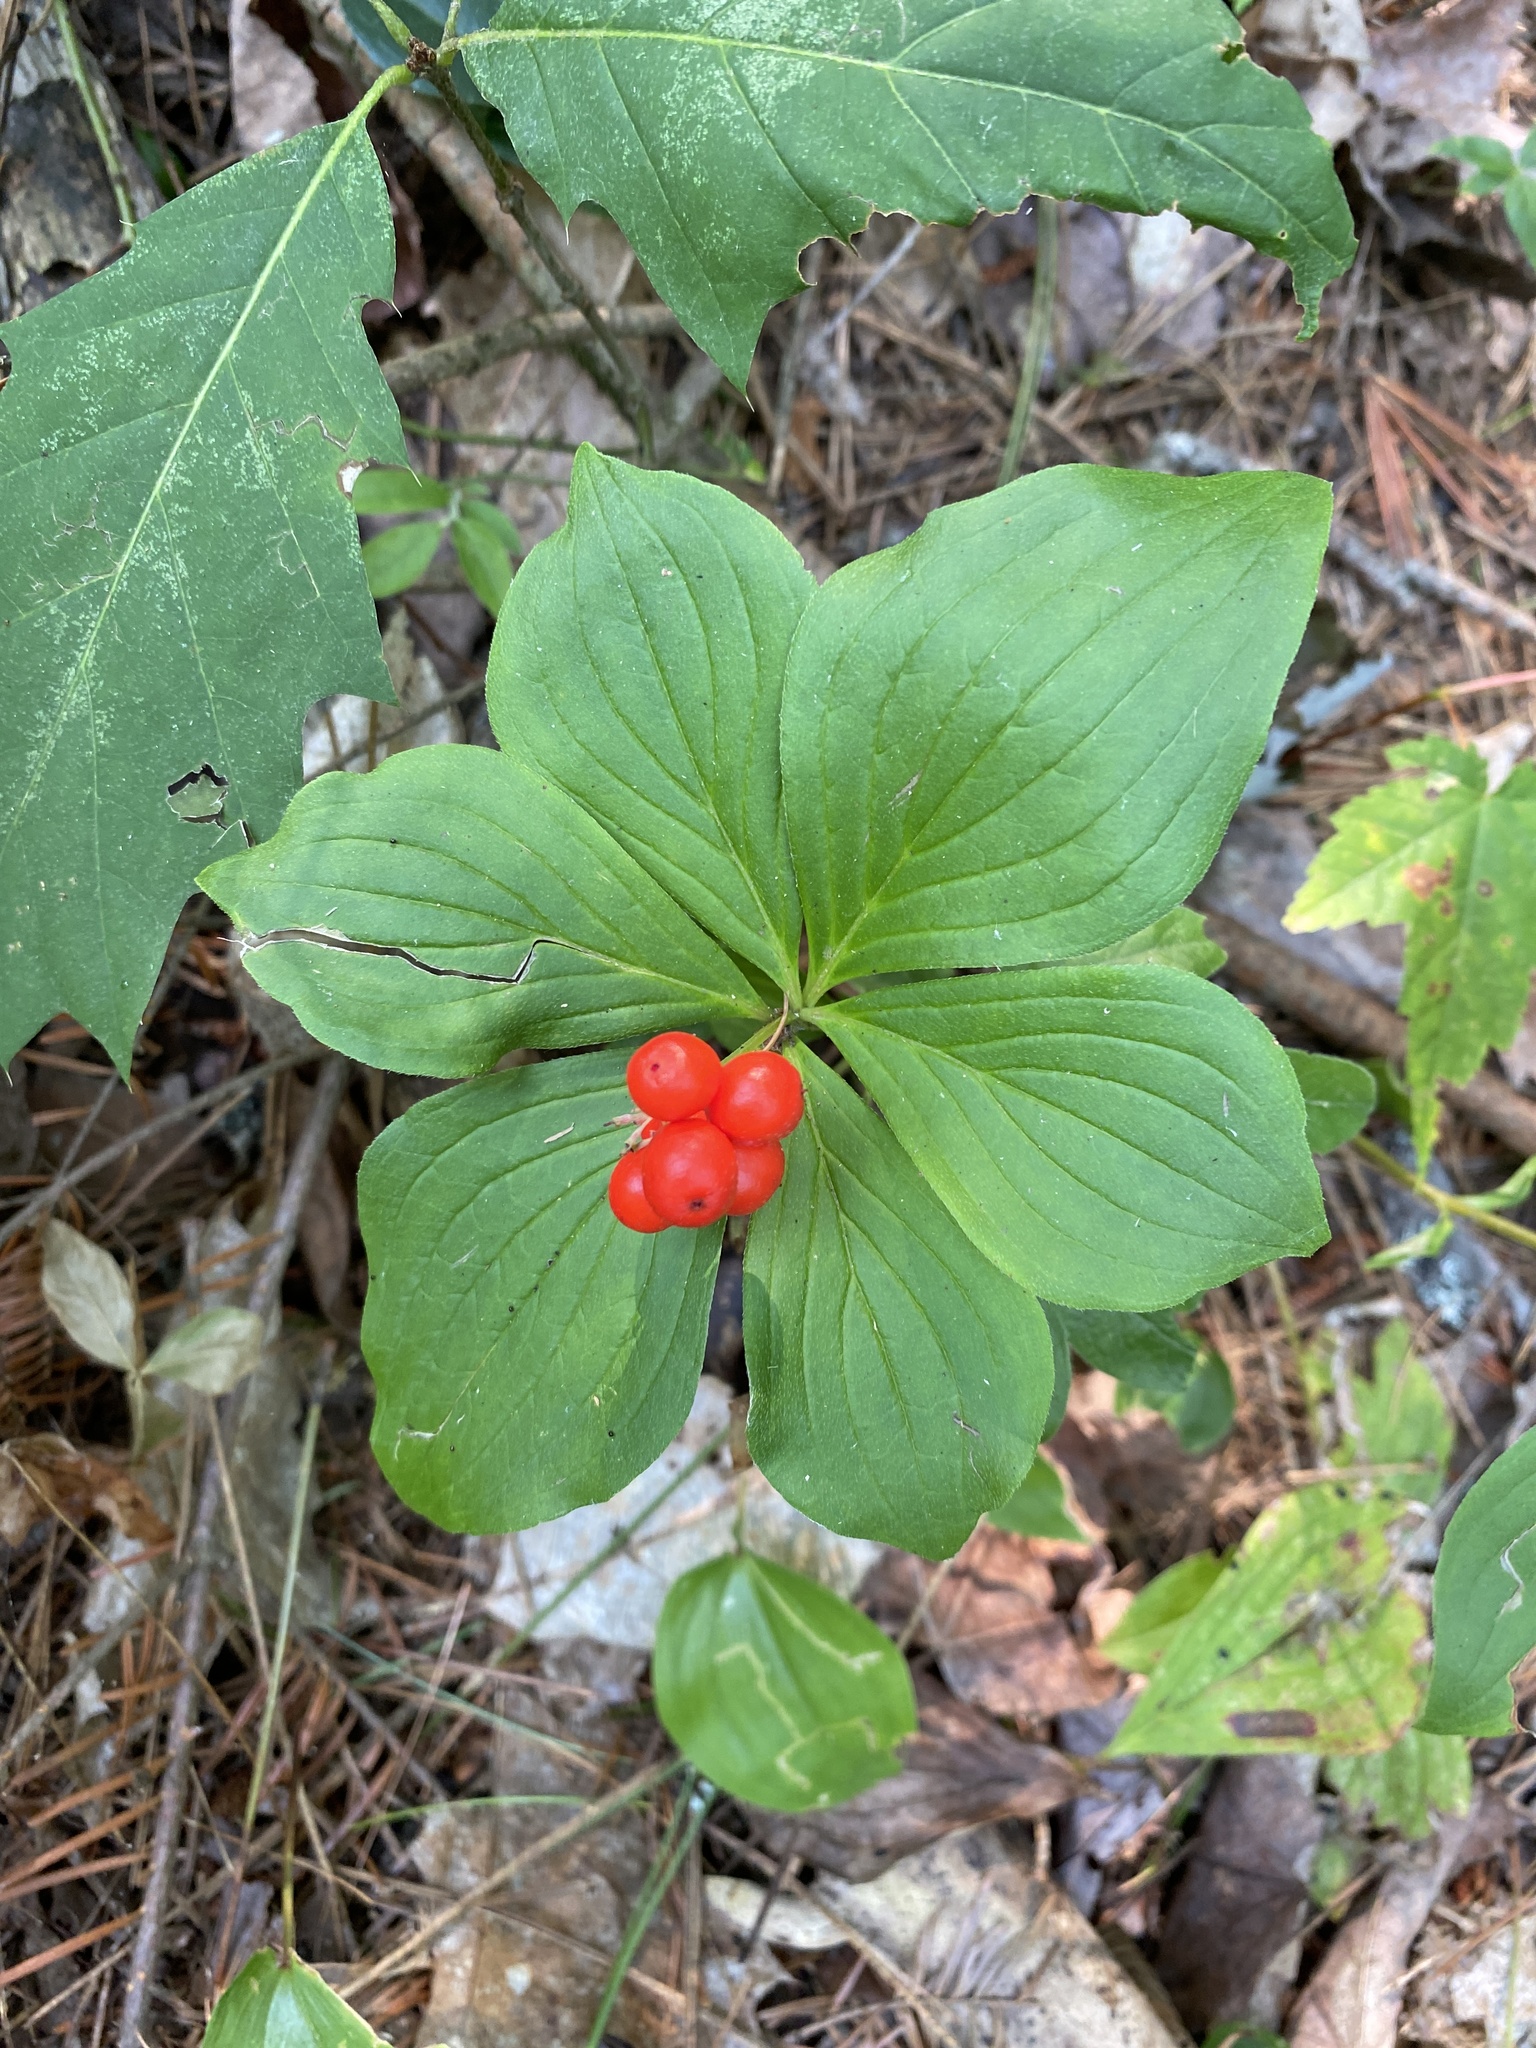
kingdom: Plantae
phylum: Tracheophyta
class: Magnoliopsida
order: Cornales
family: Cornaceae
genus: Cornus
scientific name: Cornus canadensis
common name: Creeping dogwood
